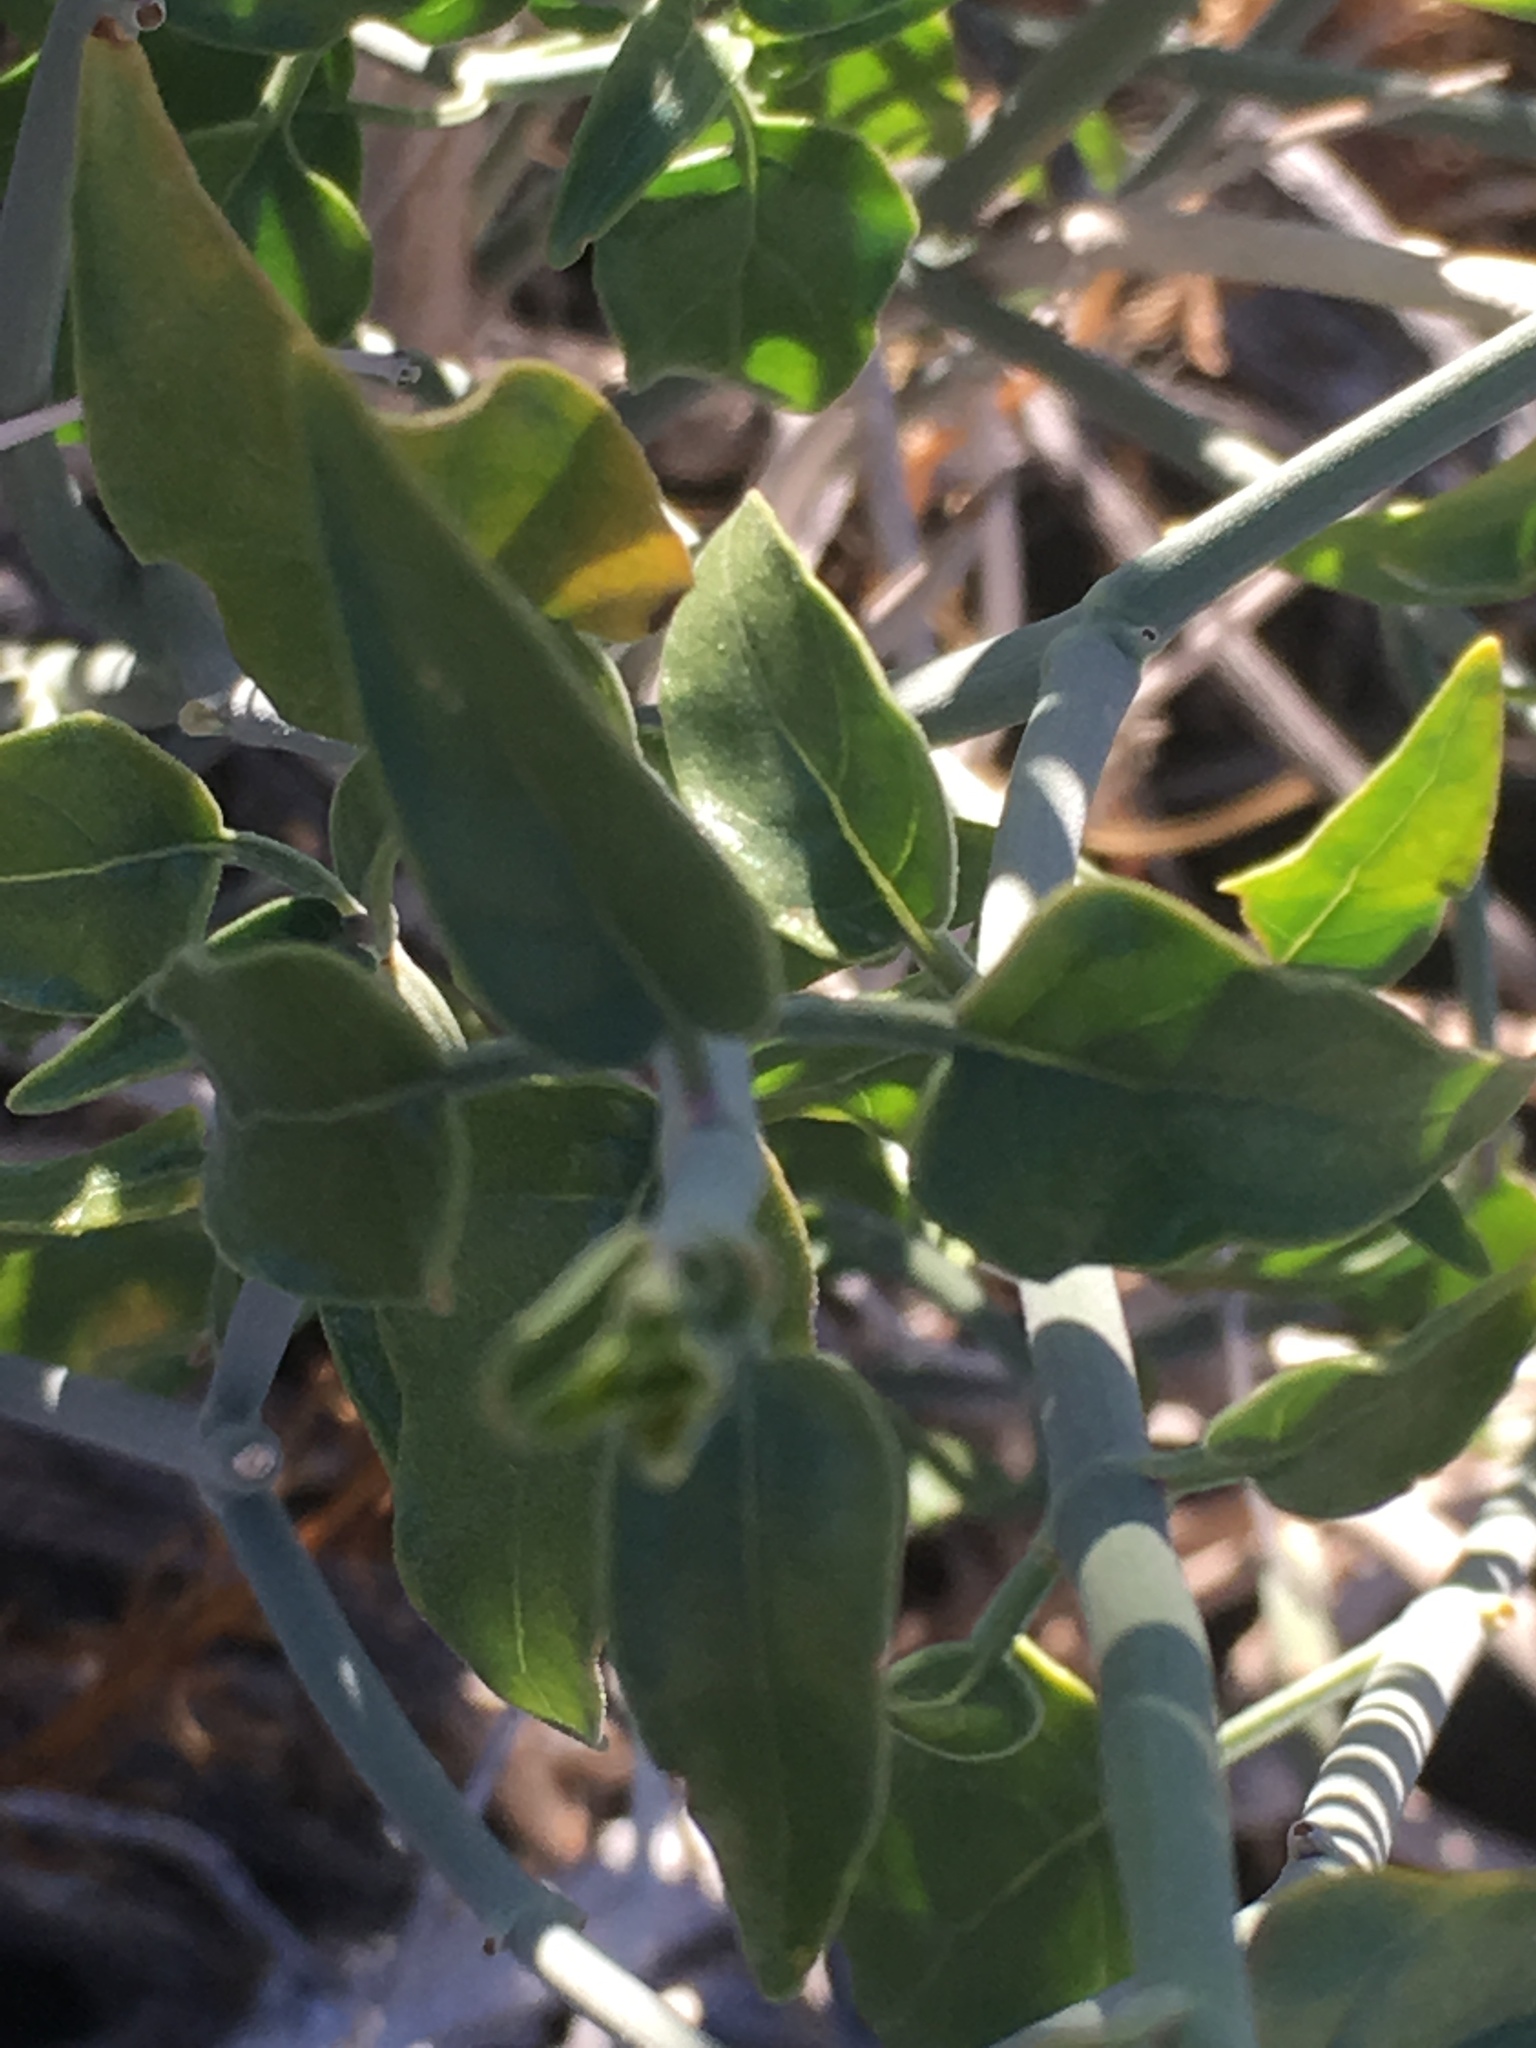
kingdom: Plantae
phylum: Tracheophyta
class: Magnoliopsida
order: Lamiales
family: Acanthaceae
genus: Justicia
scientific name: Justicia californica
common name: Chuparosa-honeysuckle
